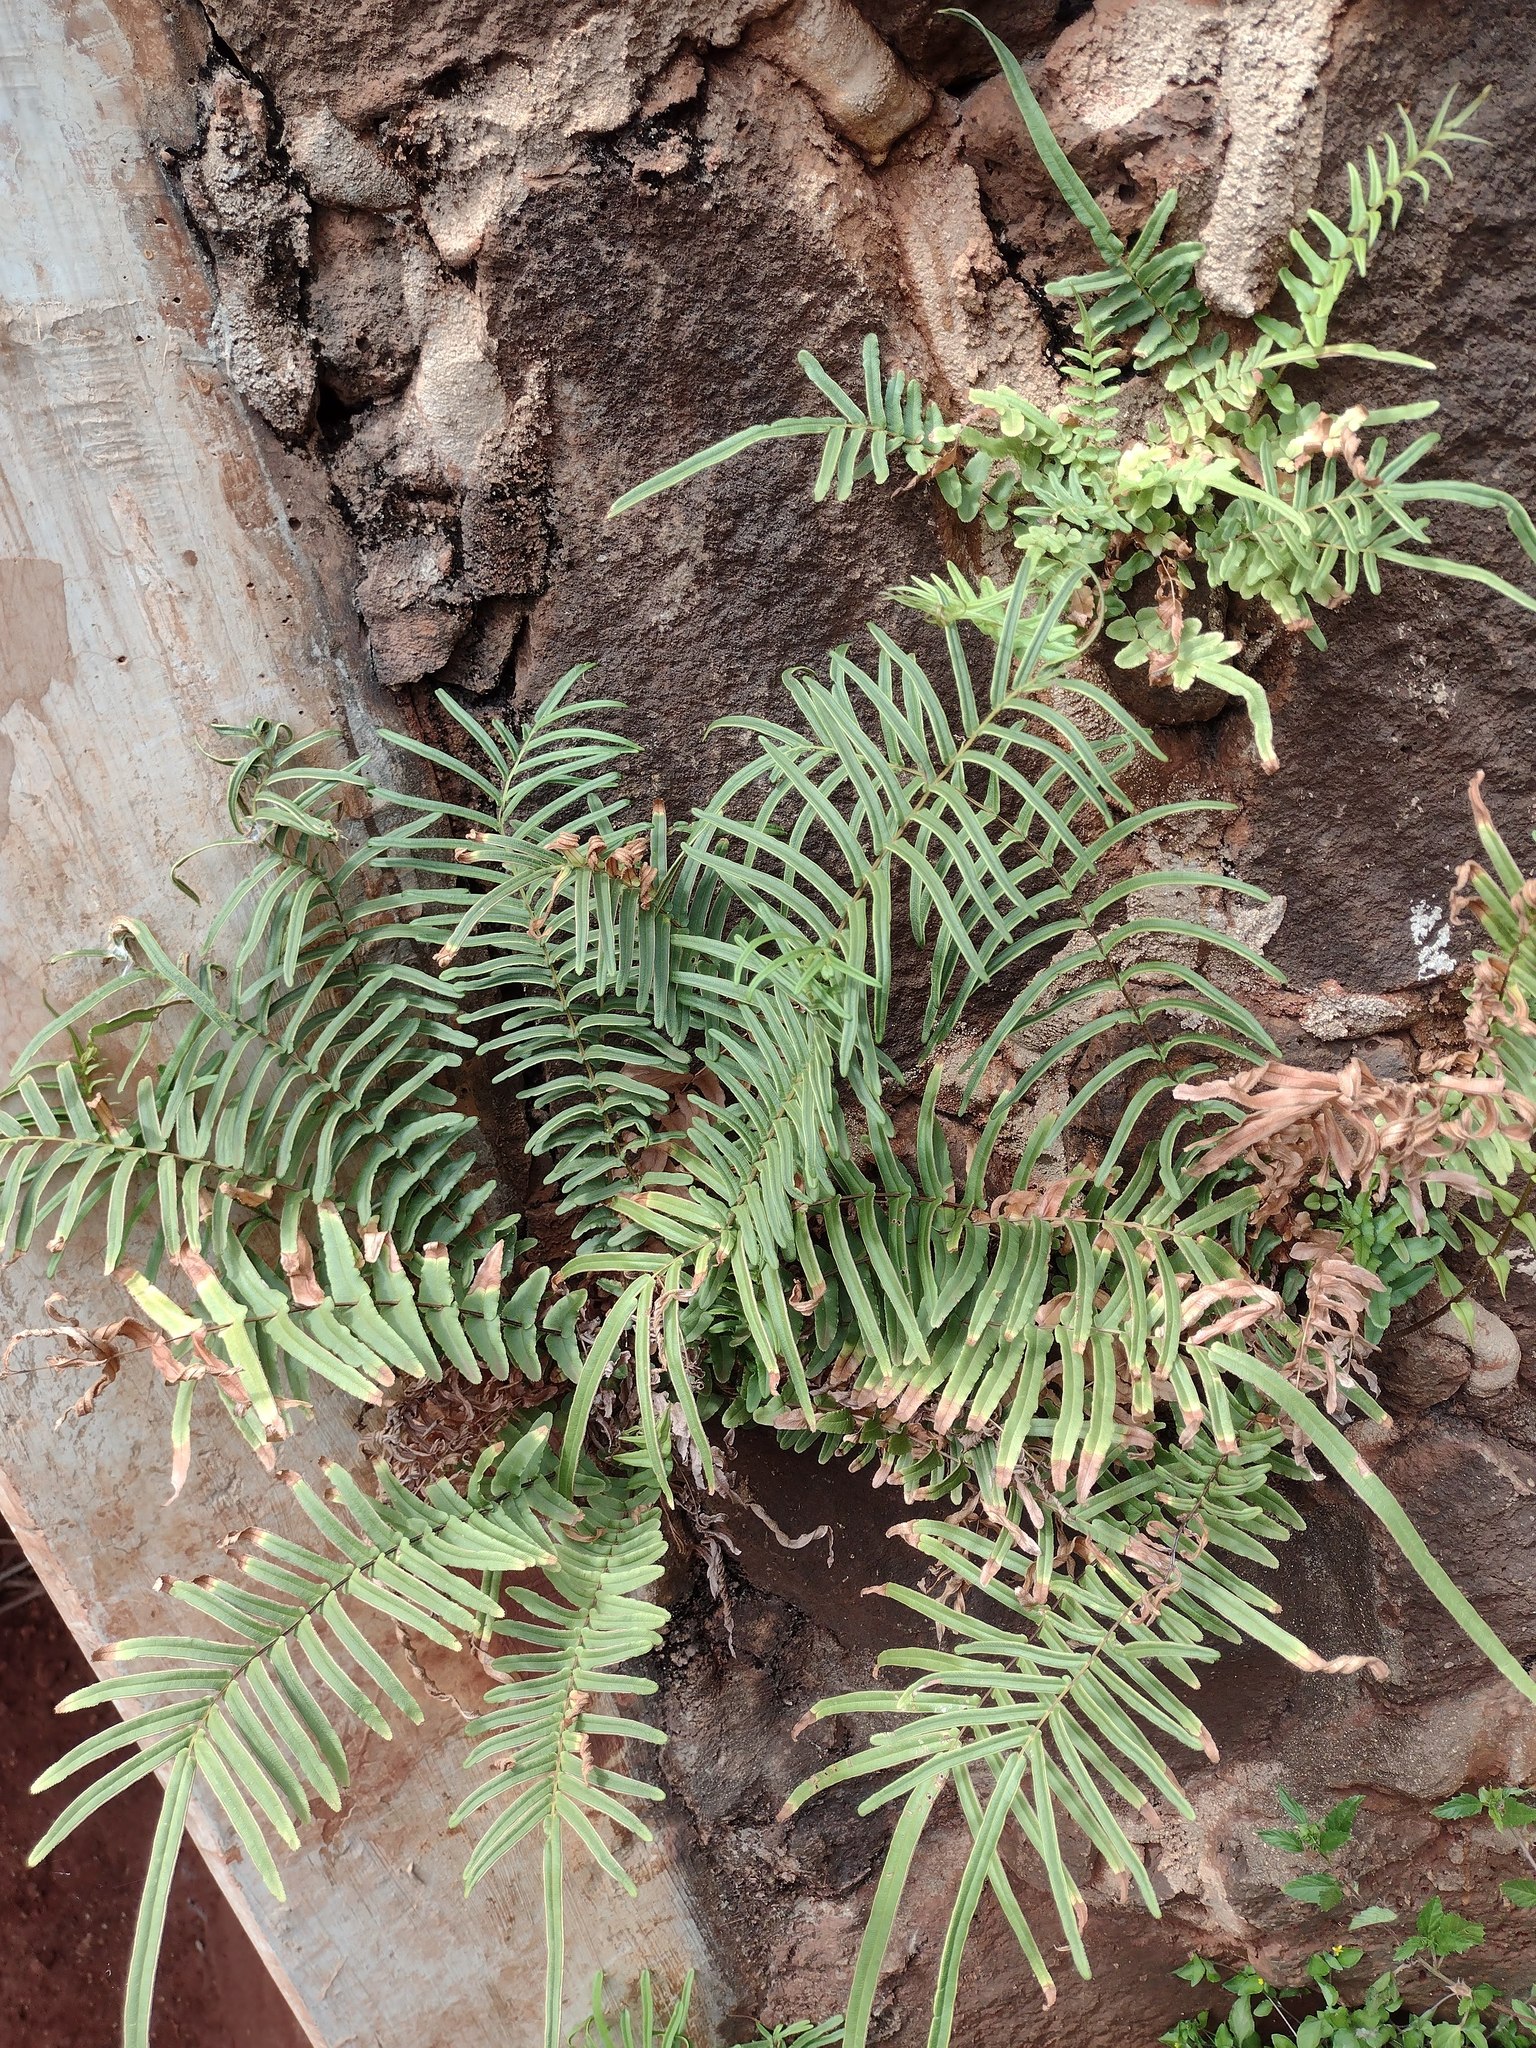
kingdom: Plantae
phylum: Tracheophyta
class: Polypodiopsida
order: Polypodiales
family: Pteridaceae
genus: Pteris
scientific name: Pteris vittata
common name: Ladder brake
